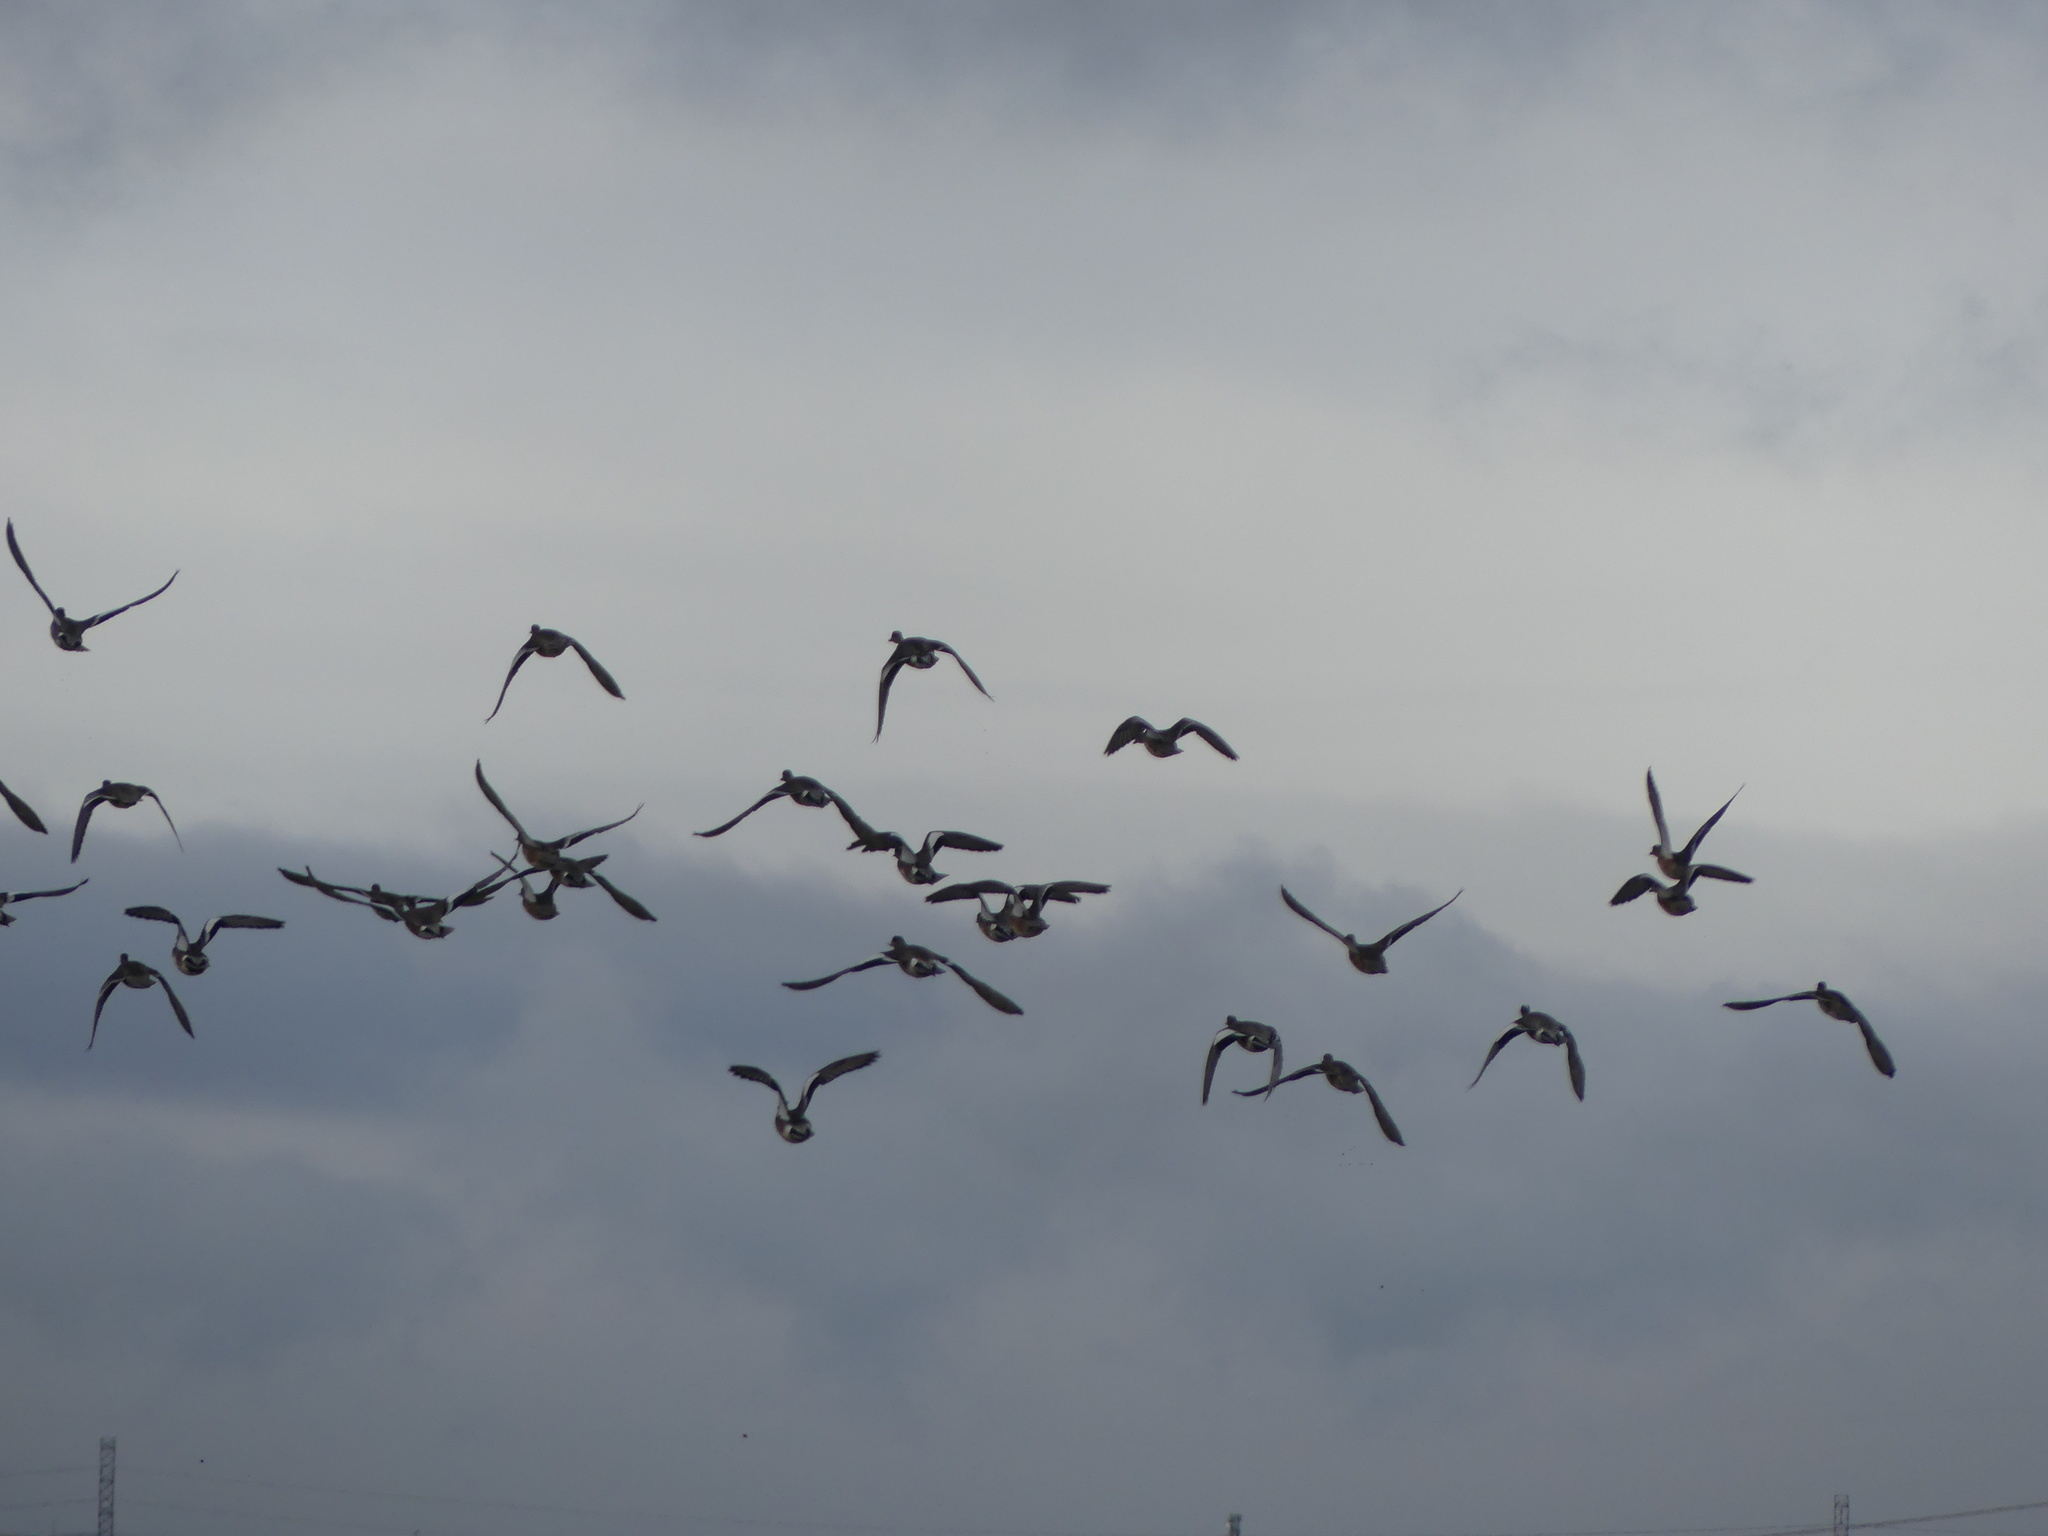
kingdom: Animalia
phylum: Chordata
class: Aves
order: Anseriformes
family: Anatidae
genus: Mareca
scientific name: Mareca americana
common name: American wigeon
